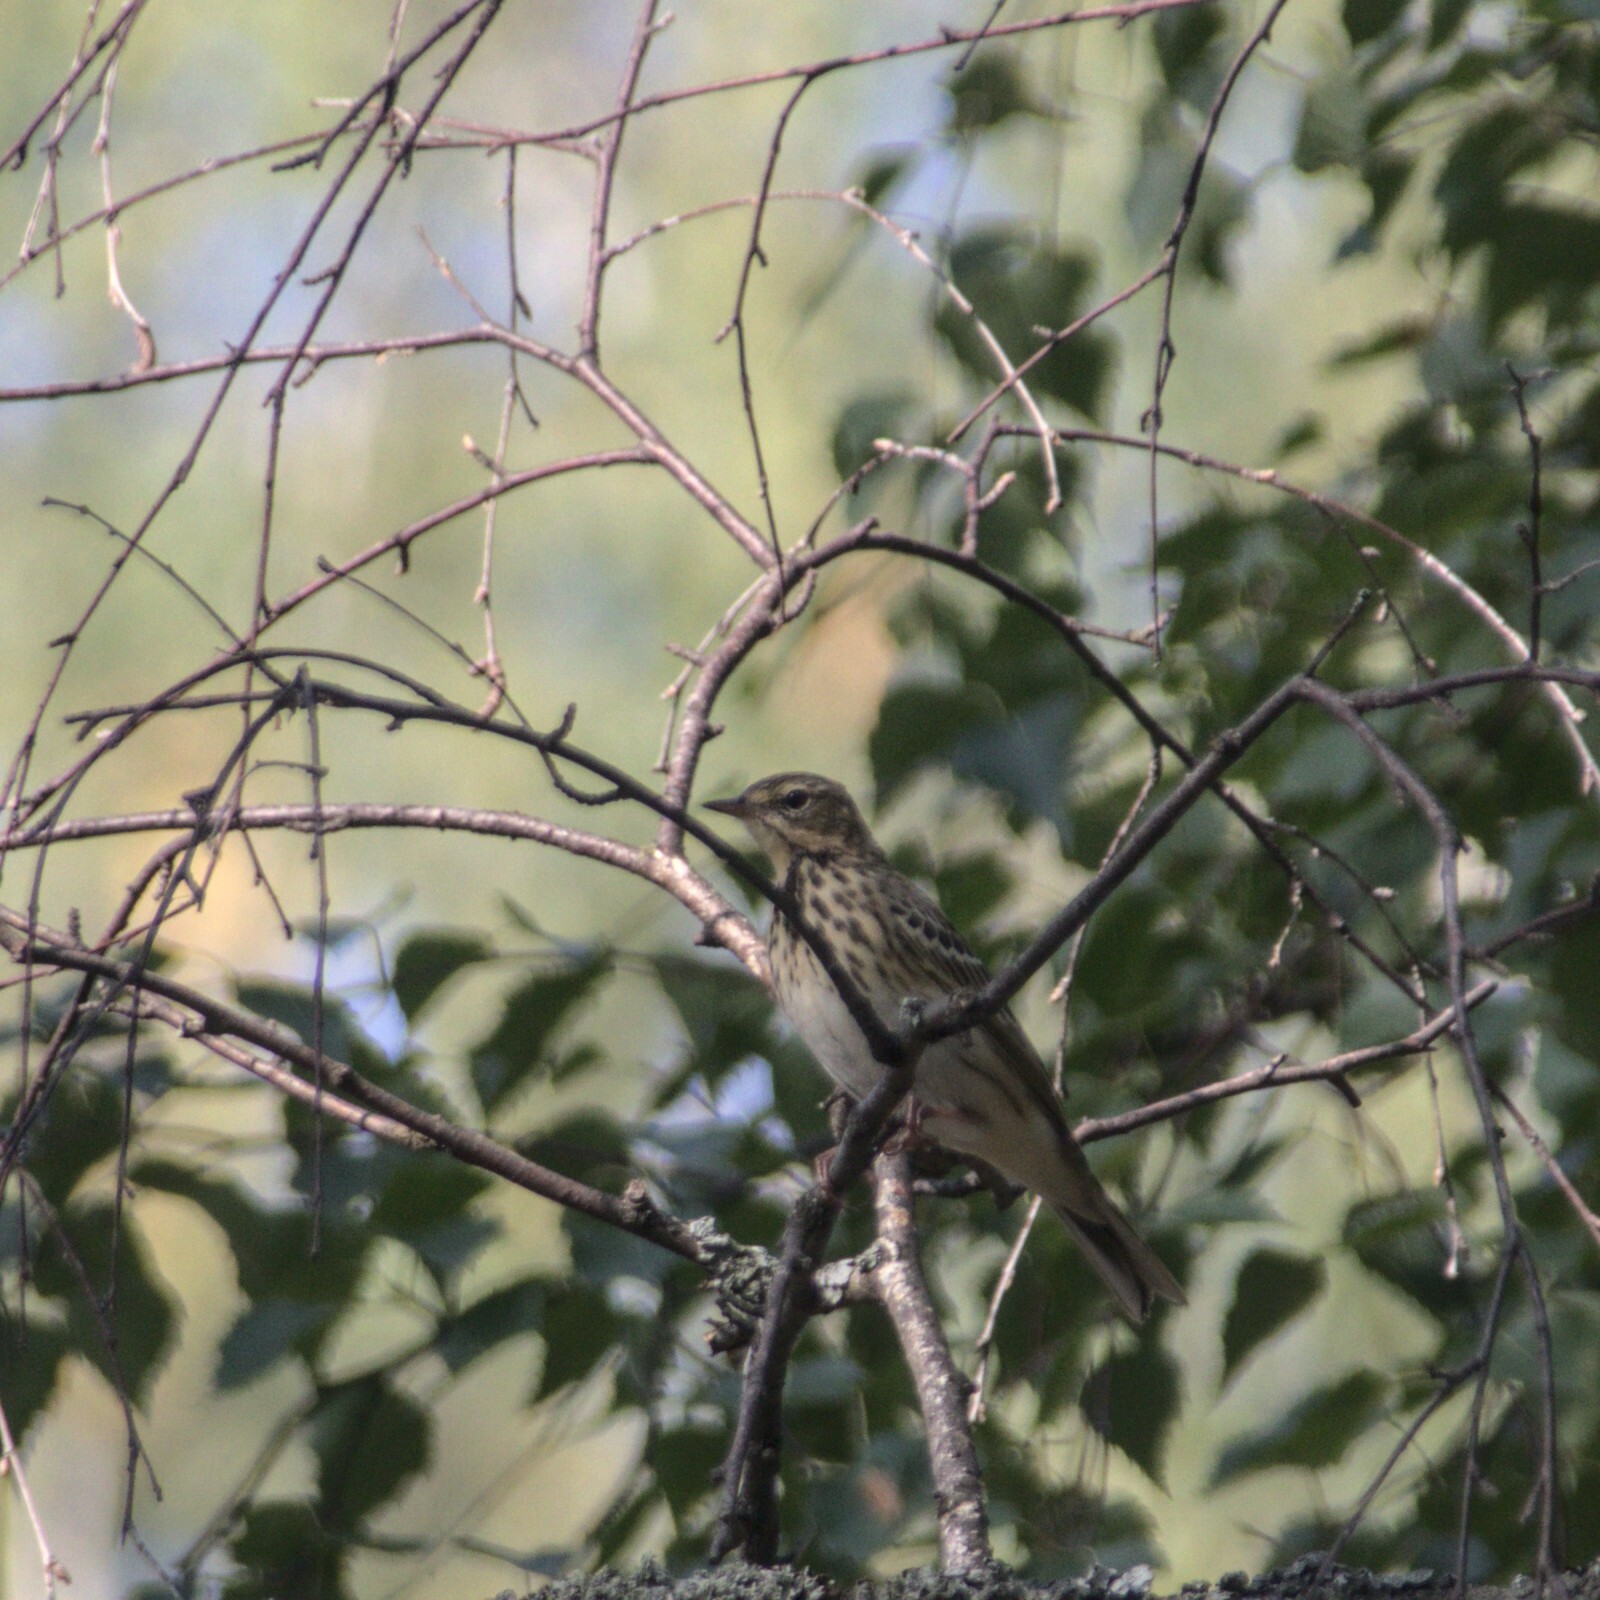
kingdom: Animalia
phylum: Chordata
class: Aves
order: Passeriformes
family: Motacillidae
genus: Anthus
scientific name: Anthus trivialis
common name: Tree pipit
